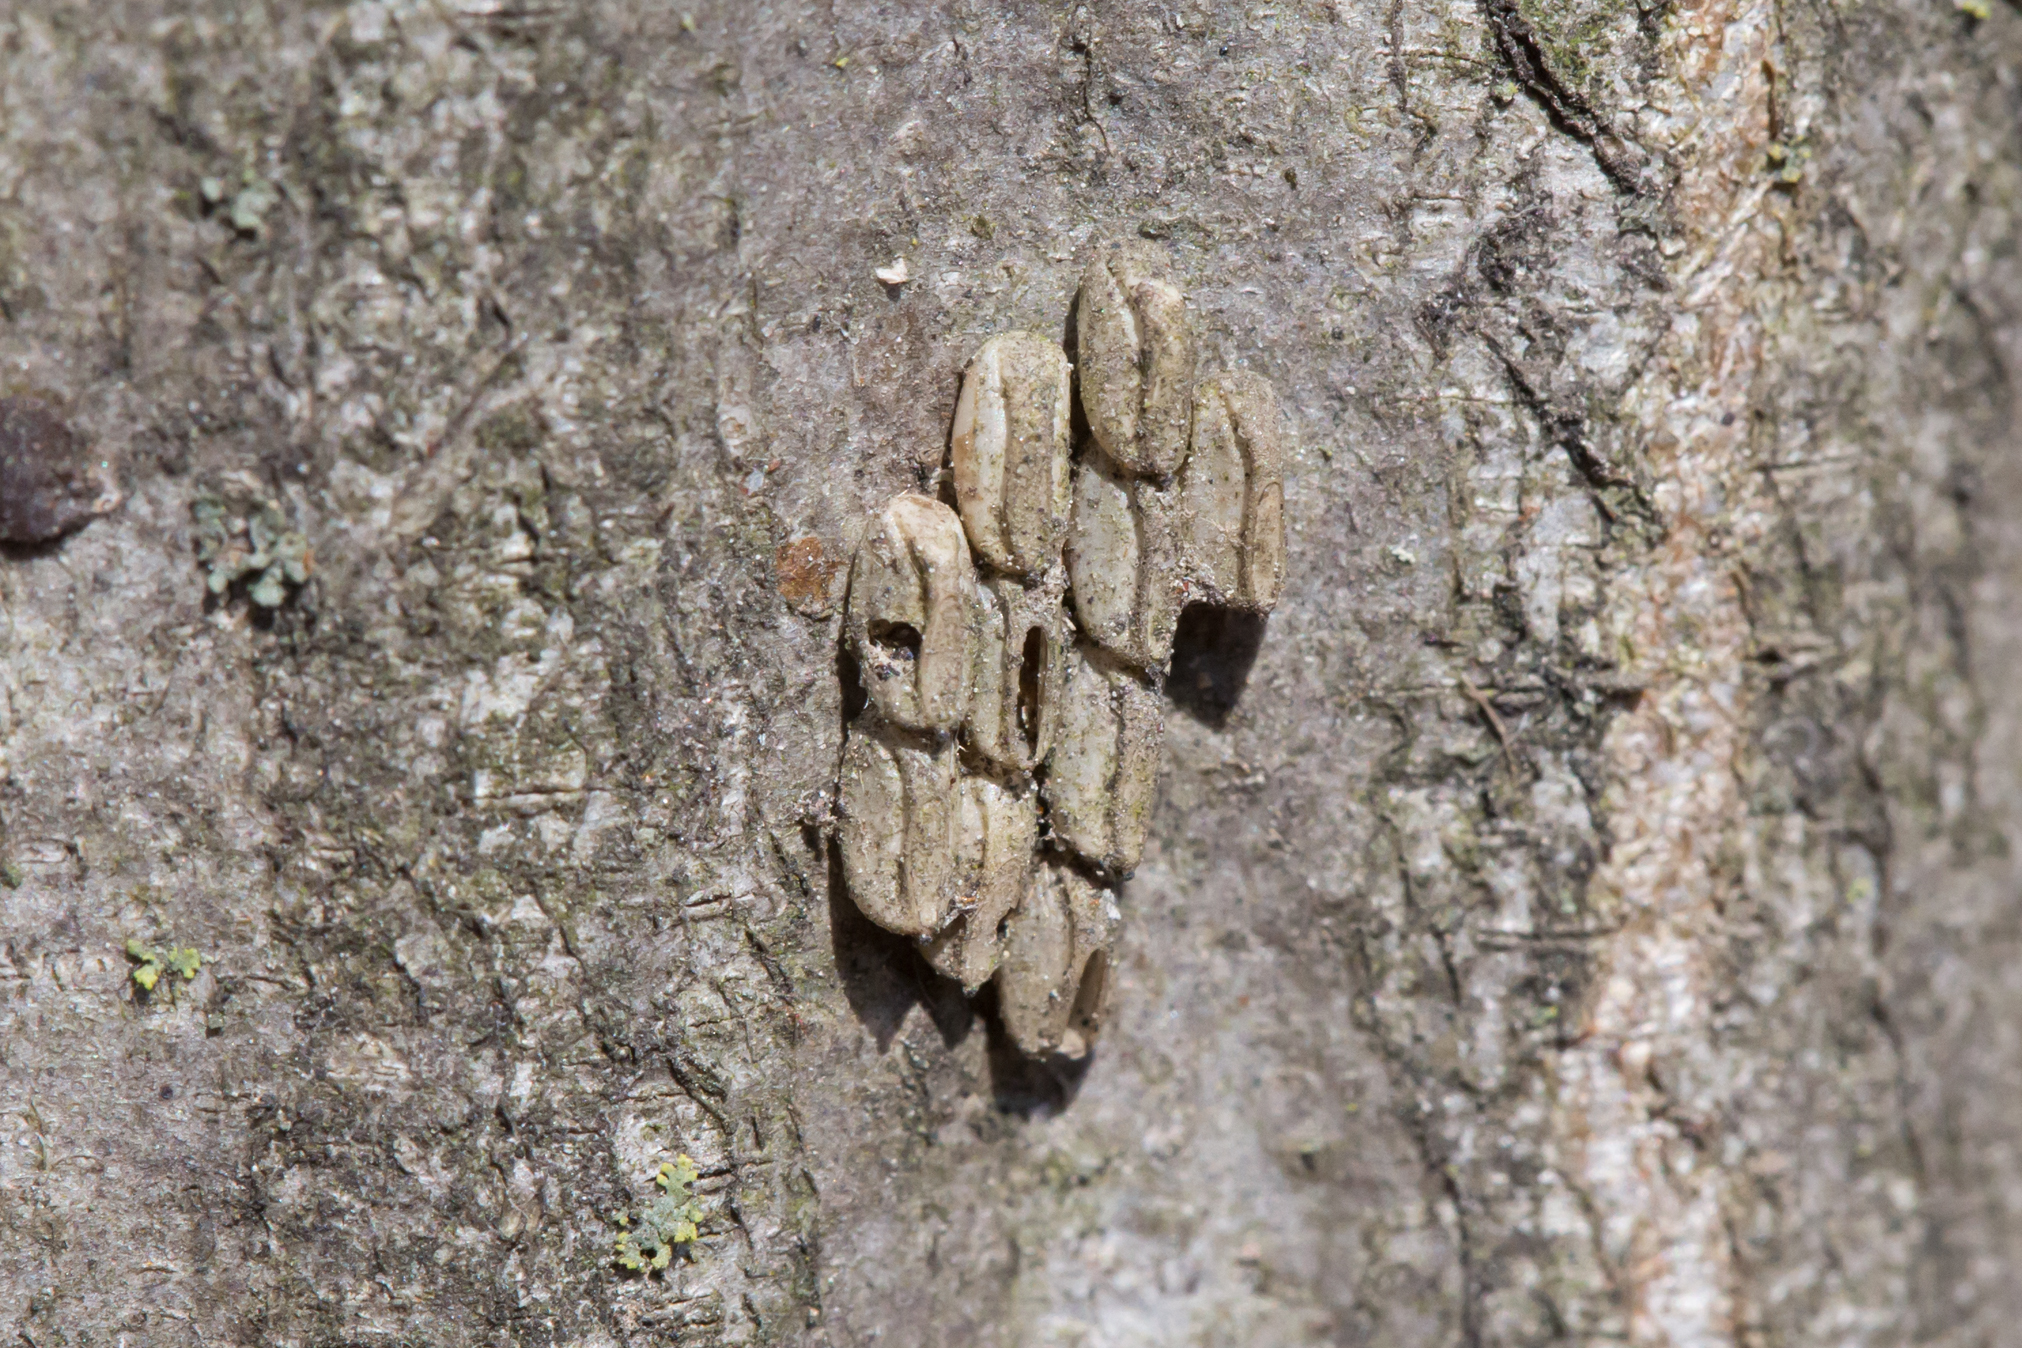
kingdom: Animalia
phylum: Arthropoda
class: Insecta
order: Hemiptera
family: Fulgoridae
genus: Lycorma
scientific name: Lycorma delicatula
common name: Spotted lanternfly
